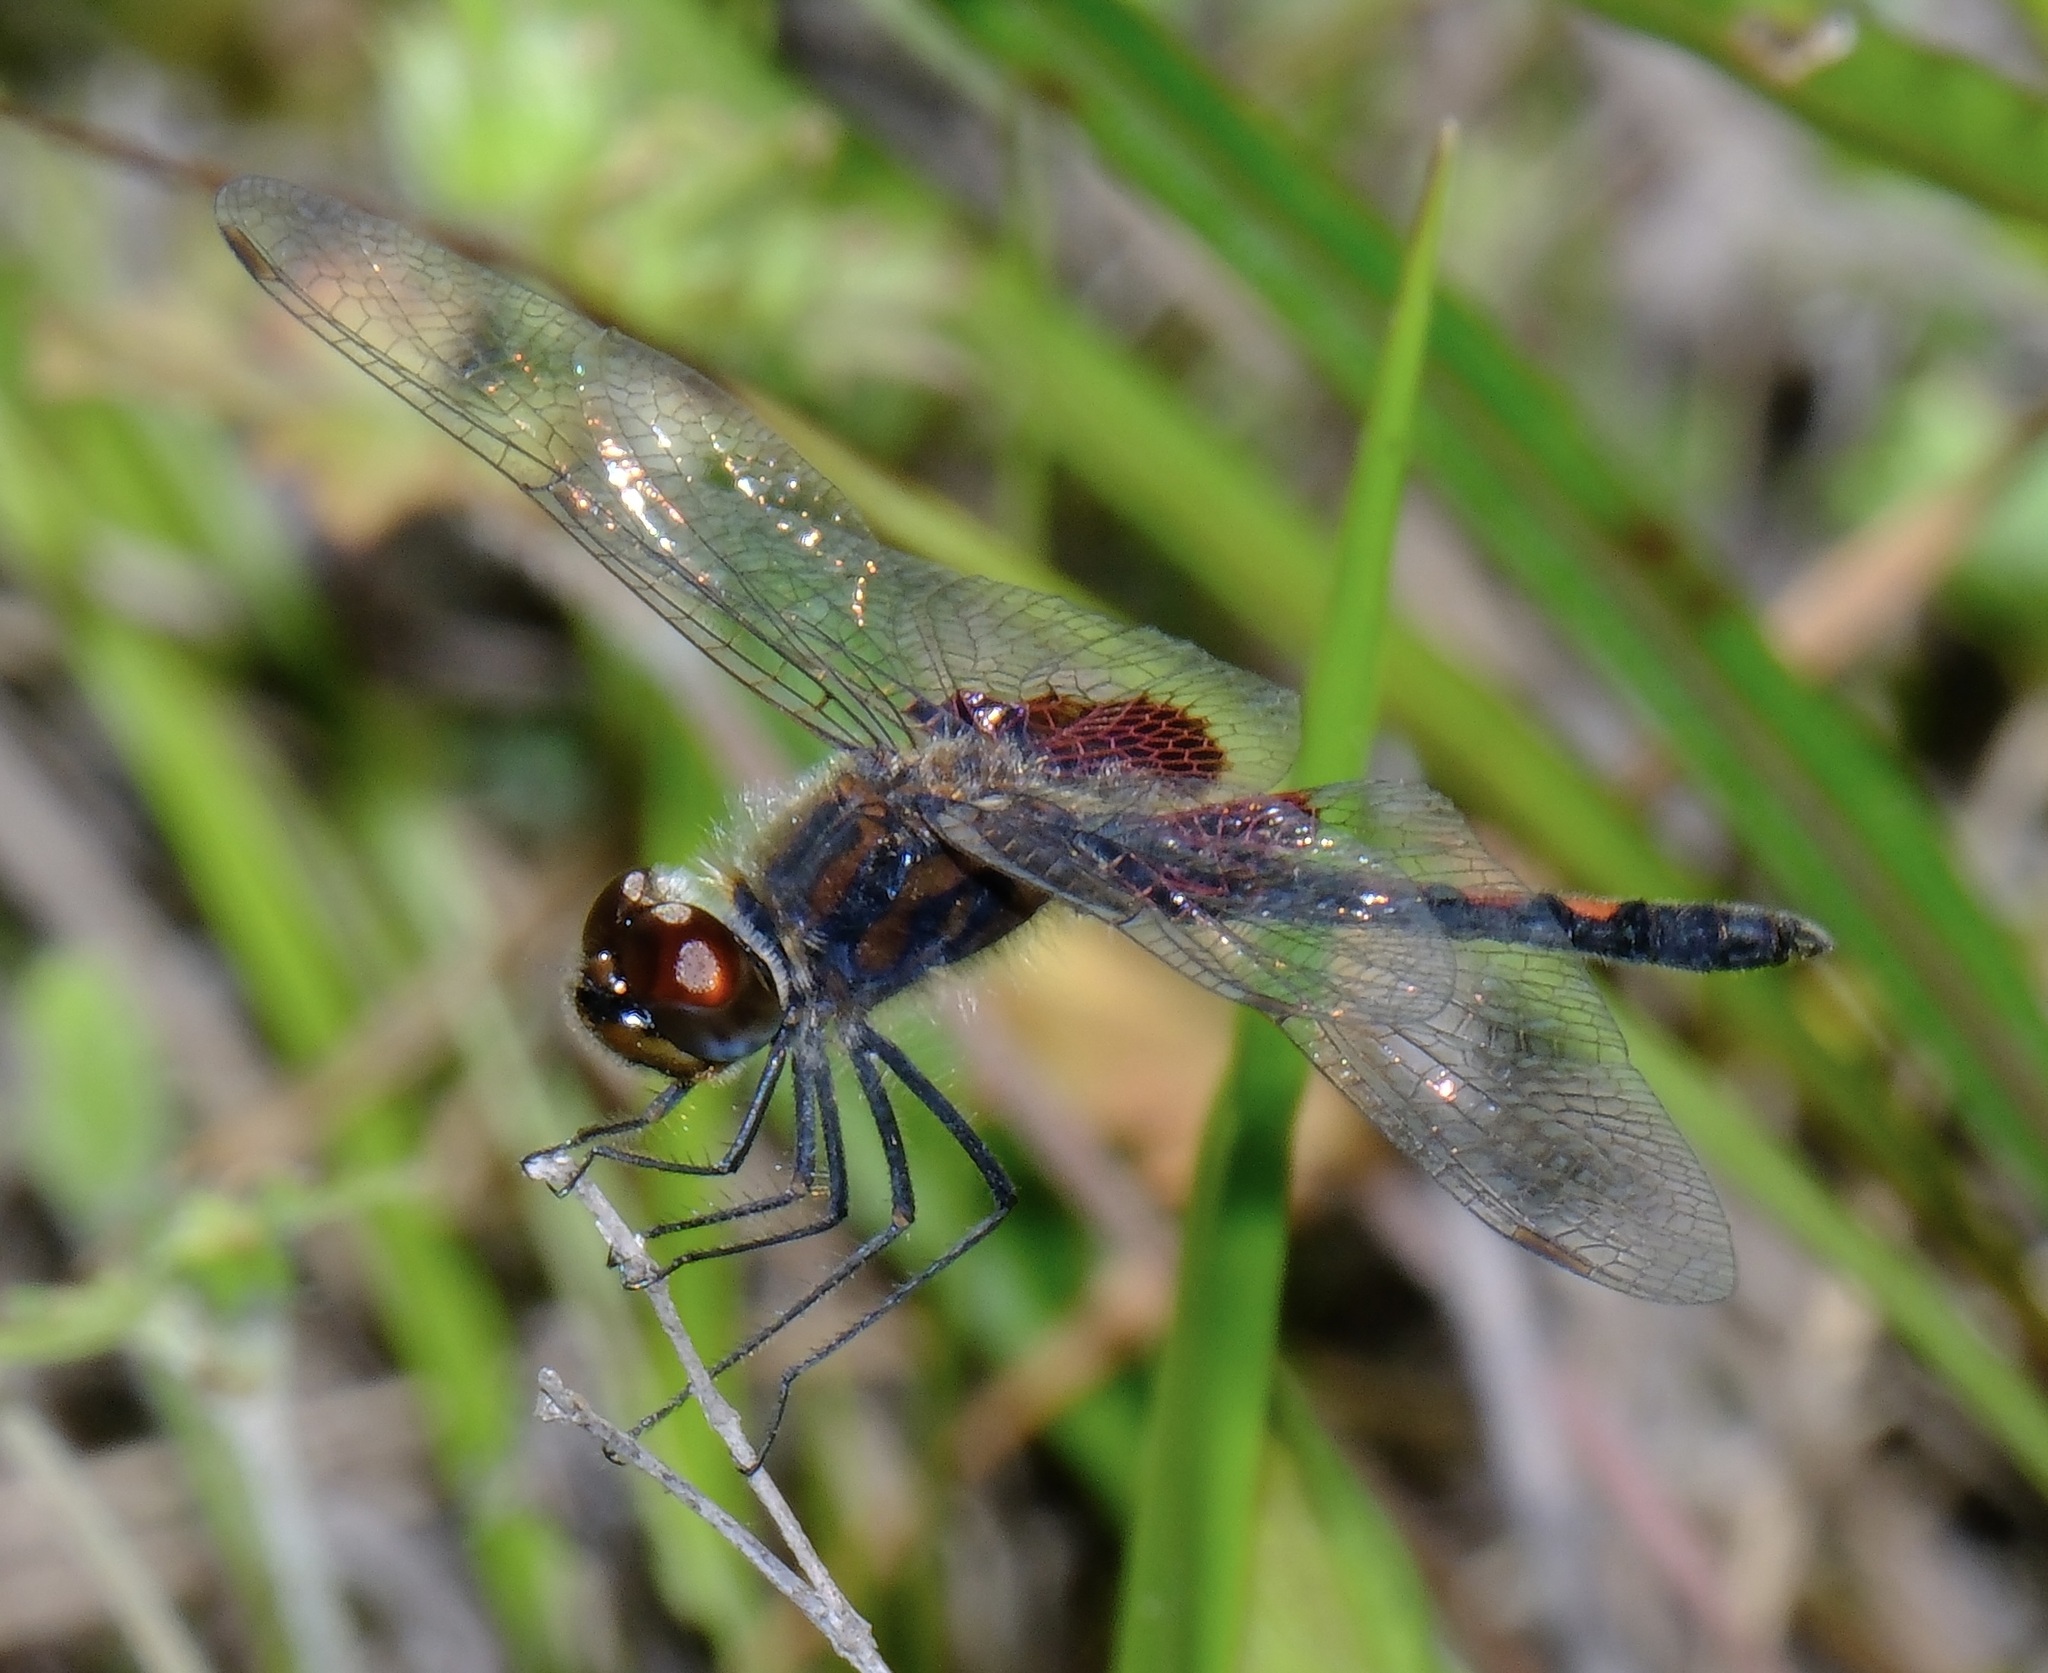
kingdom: Animalia
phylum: Arthropoda
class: Insecta
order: Odonata
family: Libellulidae
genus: Celithemis
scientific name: Celithemis ornata
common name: Ornate pennant
